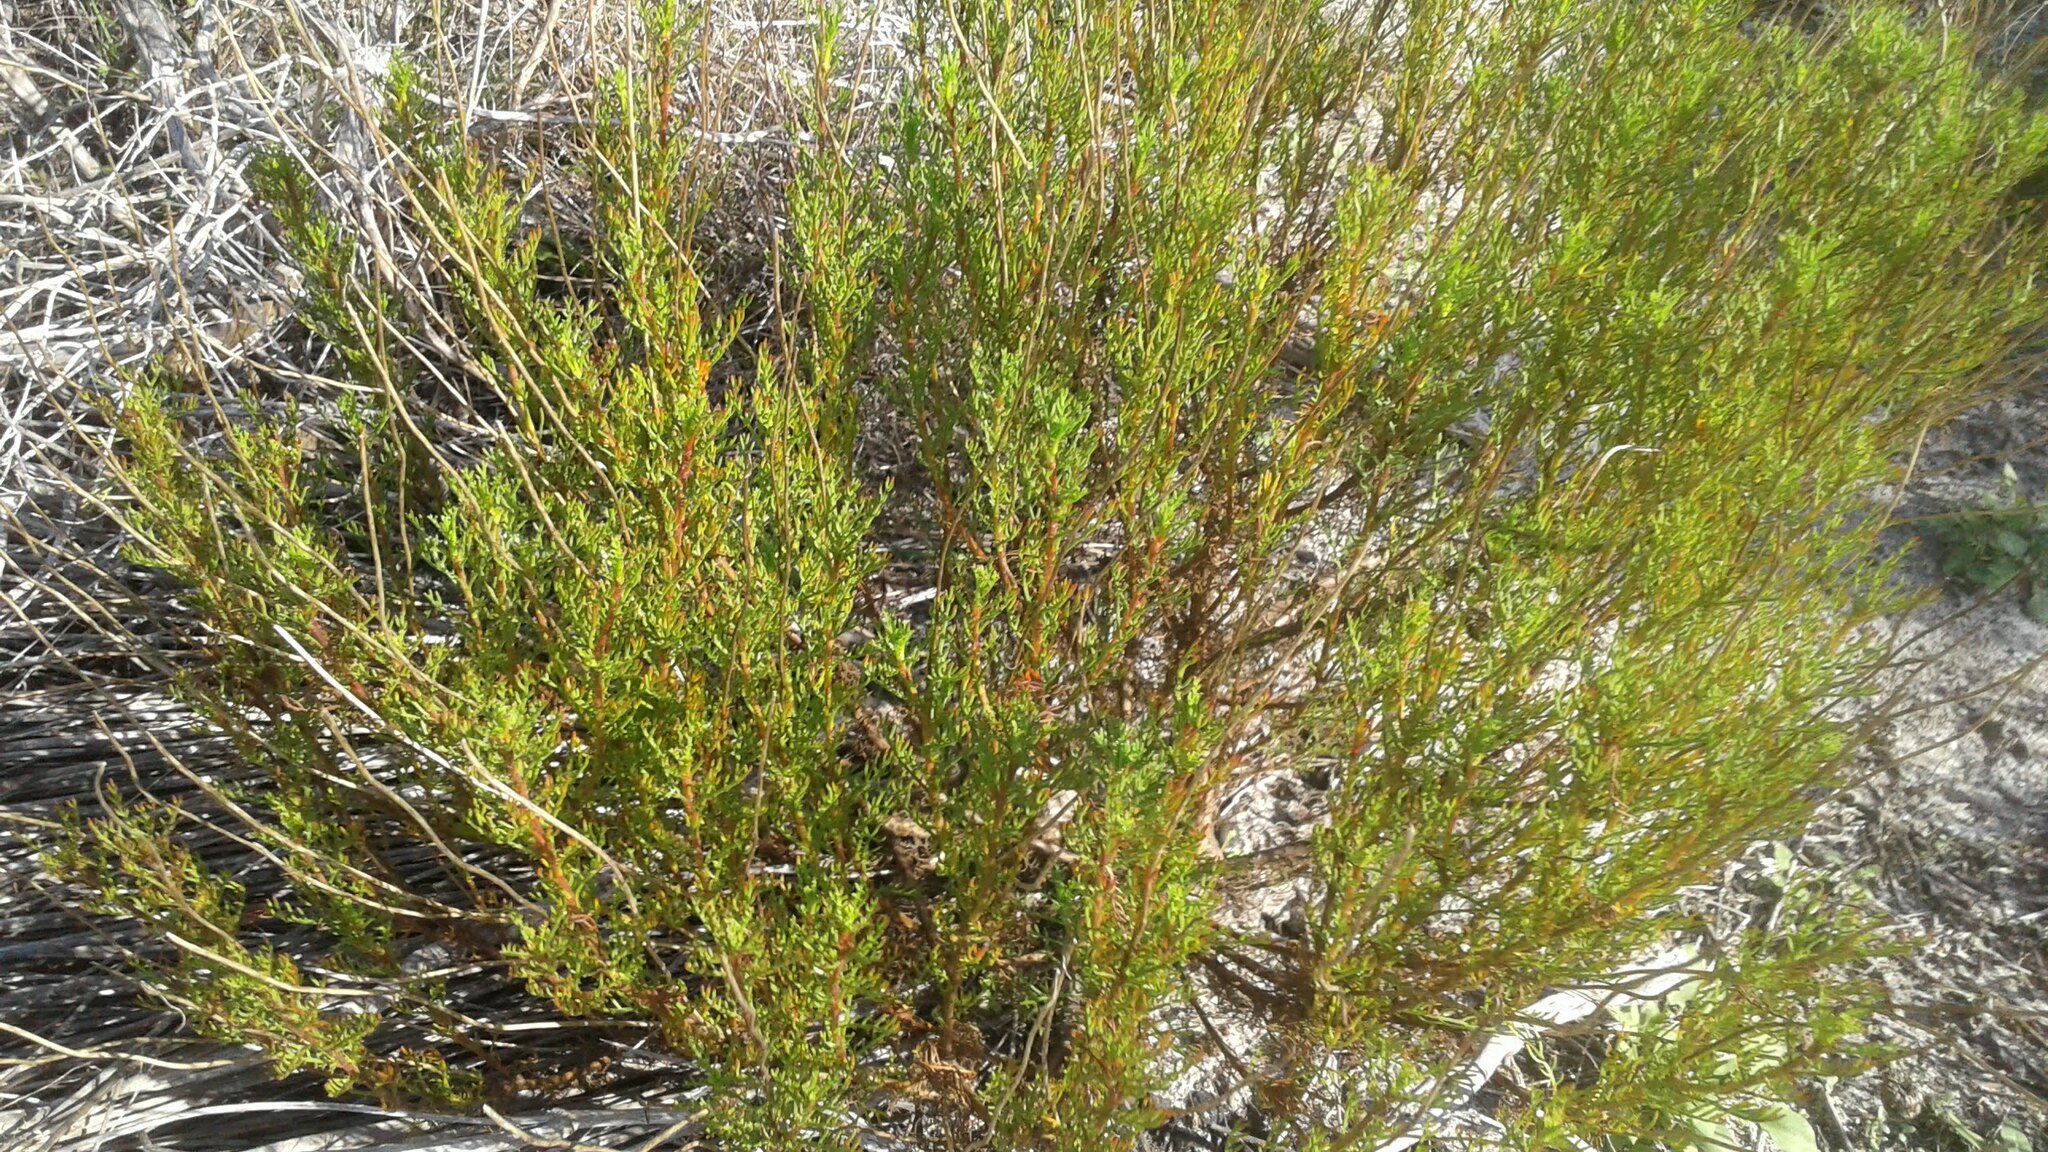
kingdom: Plantae
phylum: Tracheophyta
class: Magnoliopsida
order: Asterales
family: Asteraceae
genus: Ursinia
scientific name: Ursinia paleacea
